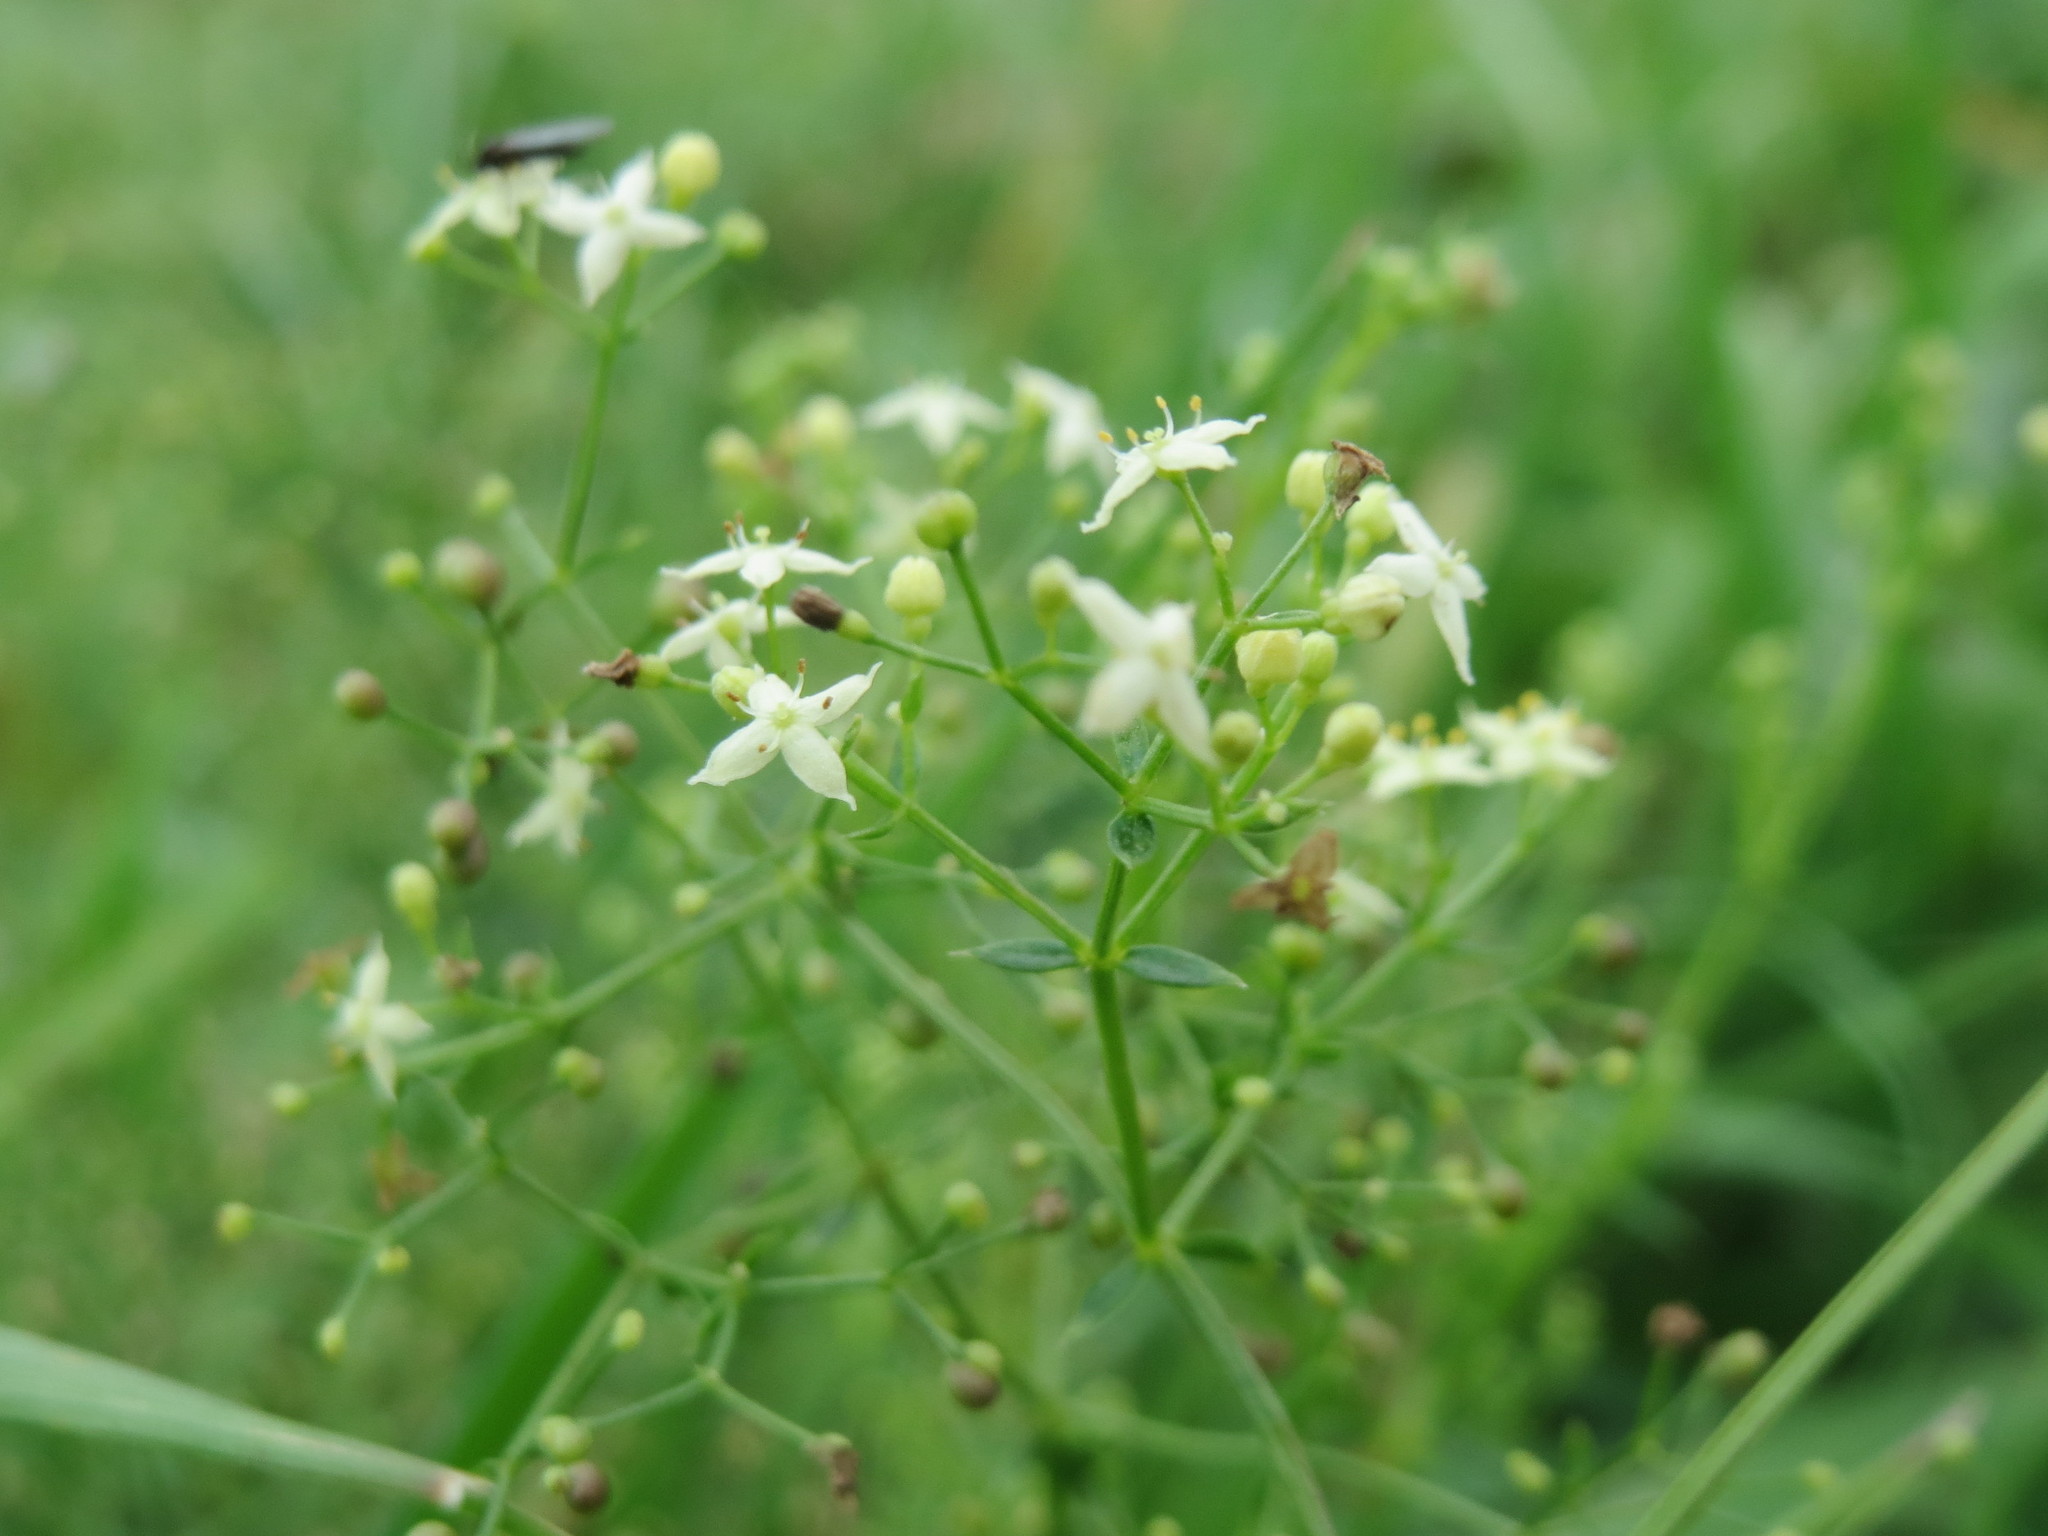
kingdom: Plantae
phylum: Tracheophyta
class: Magnoliopsida
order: Gentianales
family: Rubiaceae
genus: Galium
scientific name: Galium mollugo
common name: Hedge bedstraw
